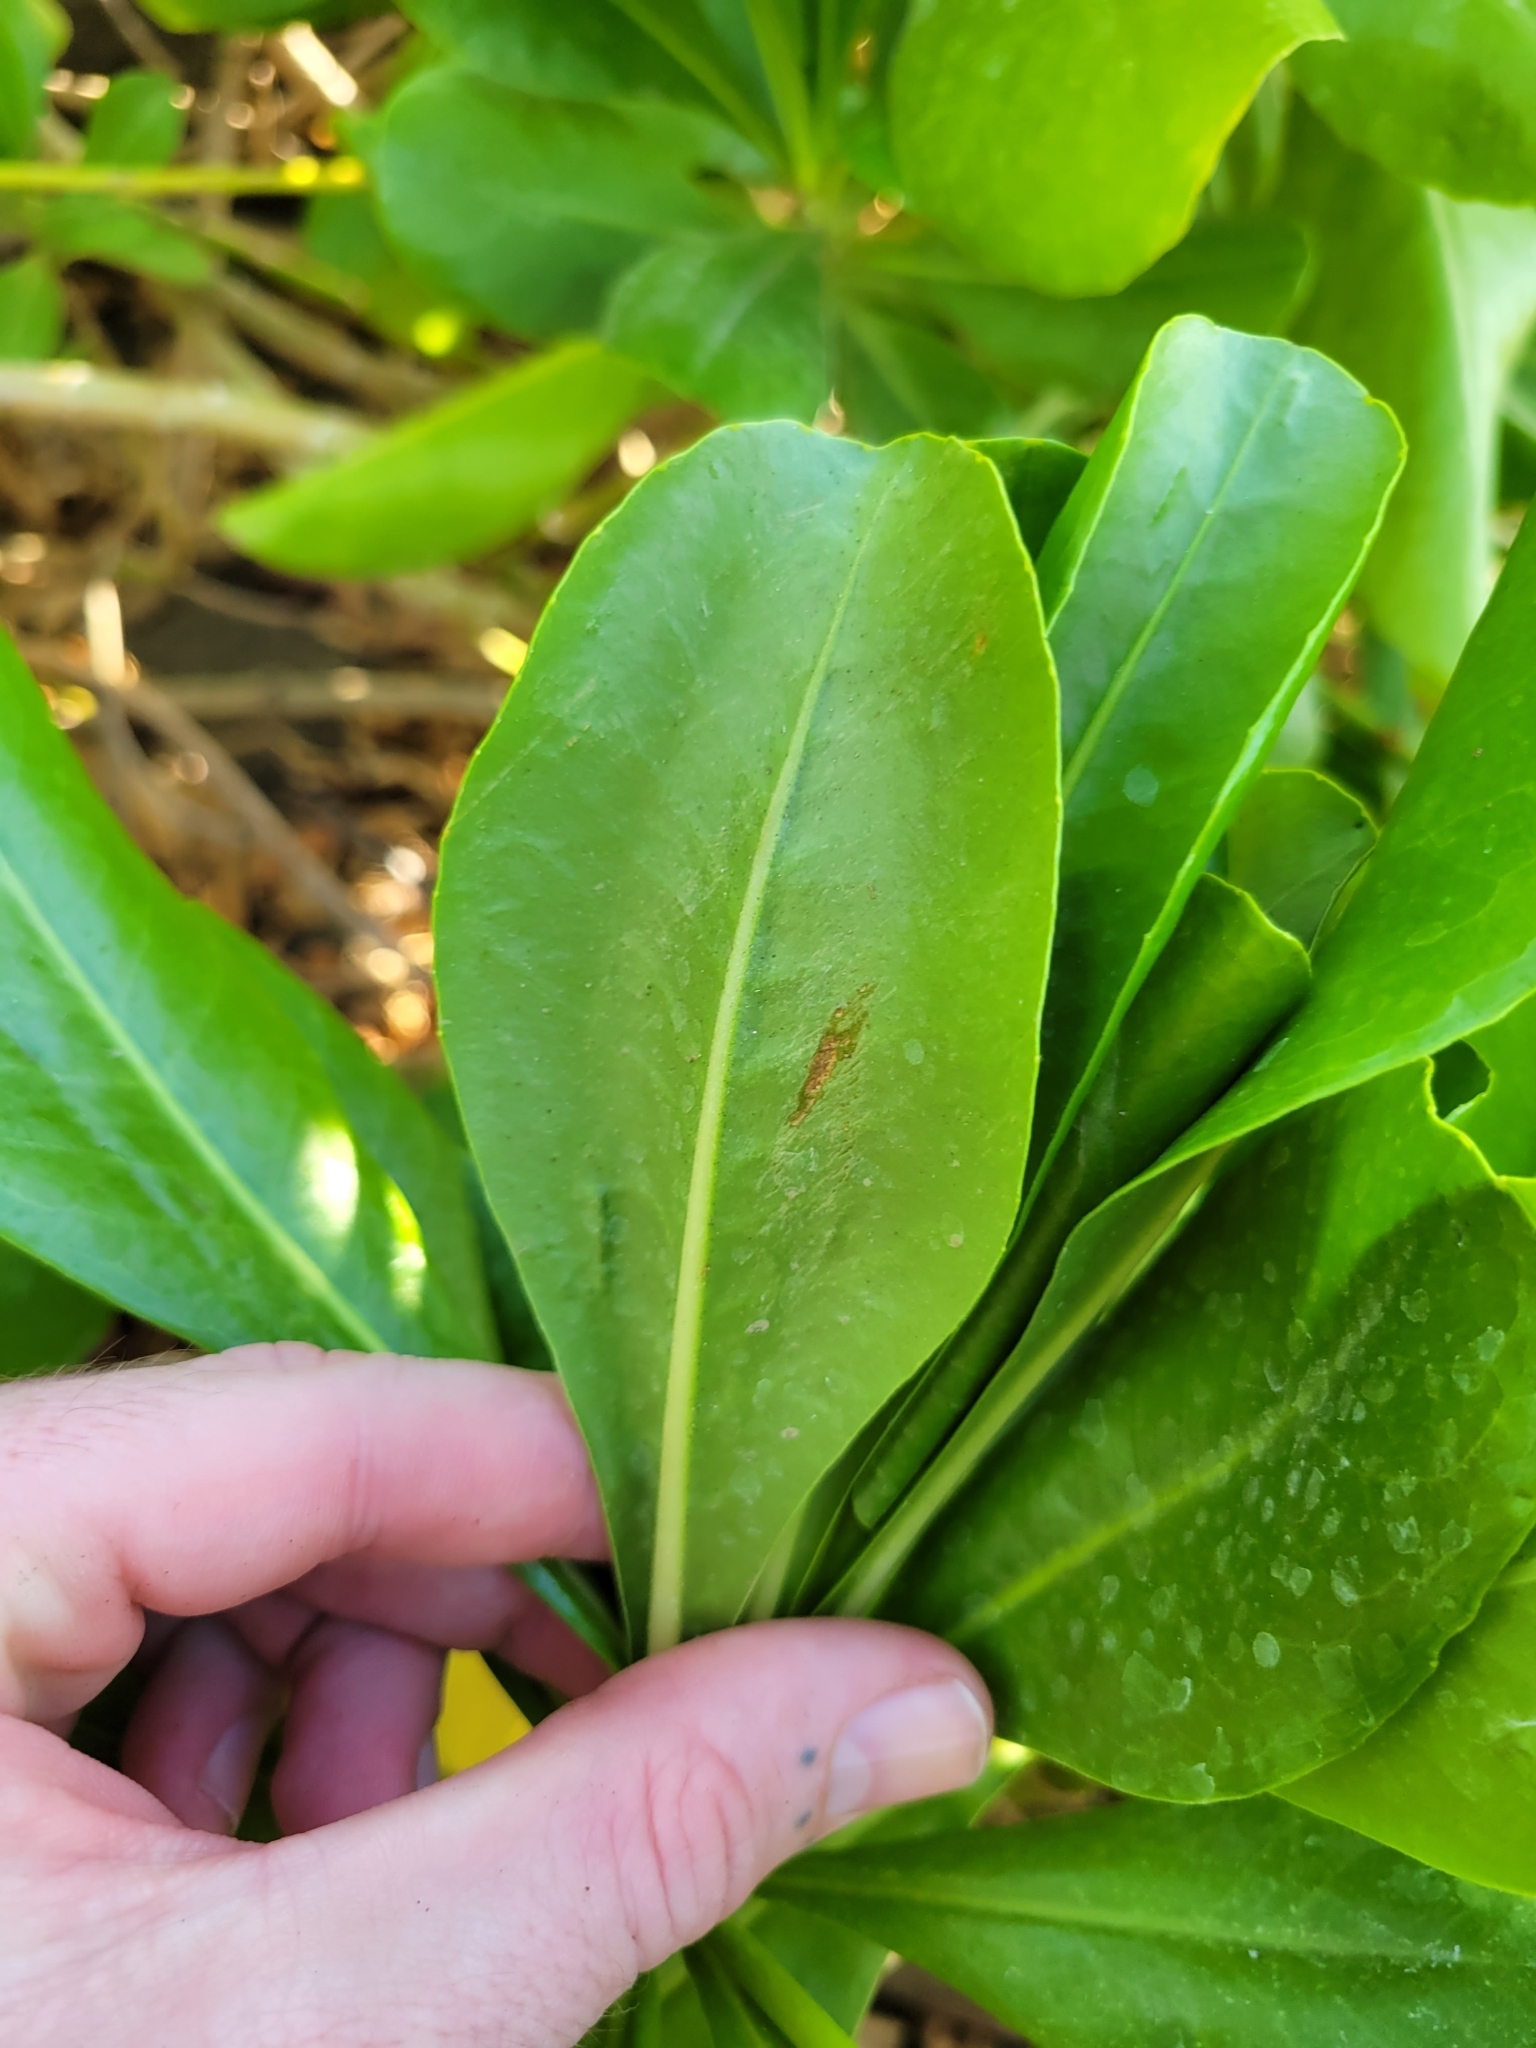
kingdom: Plantae
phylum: Tracheophyta
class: Magnoliopsida
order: Asterales
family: Goodeniaceae
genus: Scaevola
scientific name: Scaevola taccada
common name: Sea lettucetree
